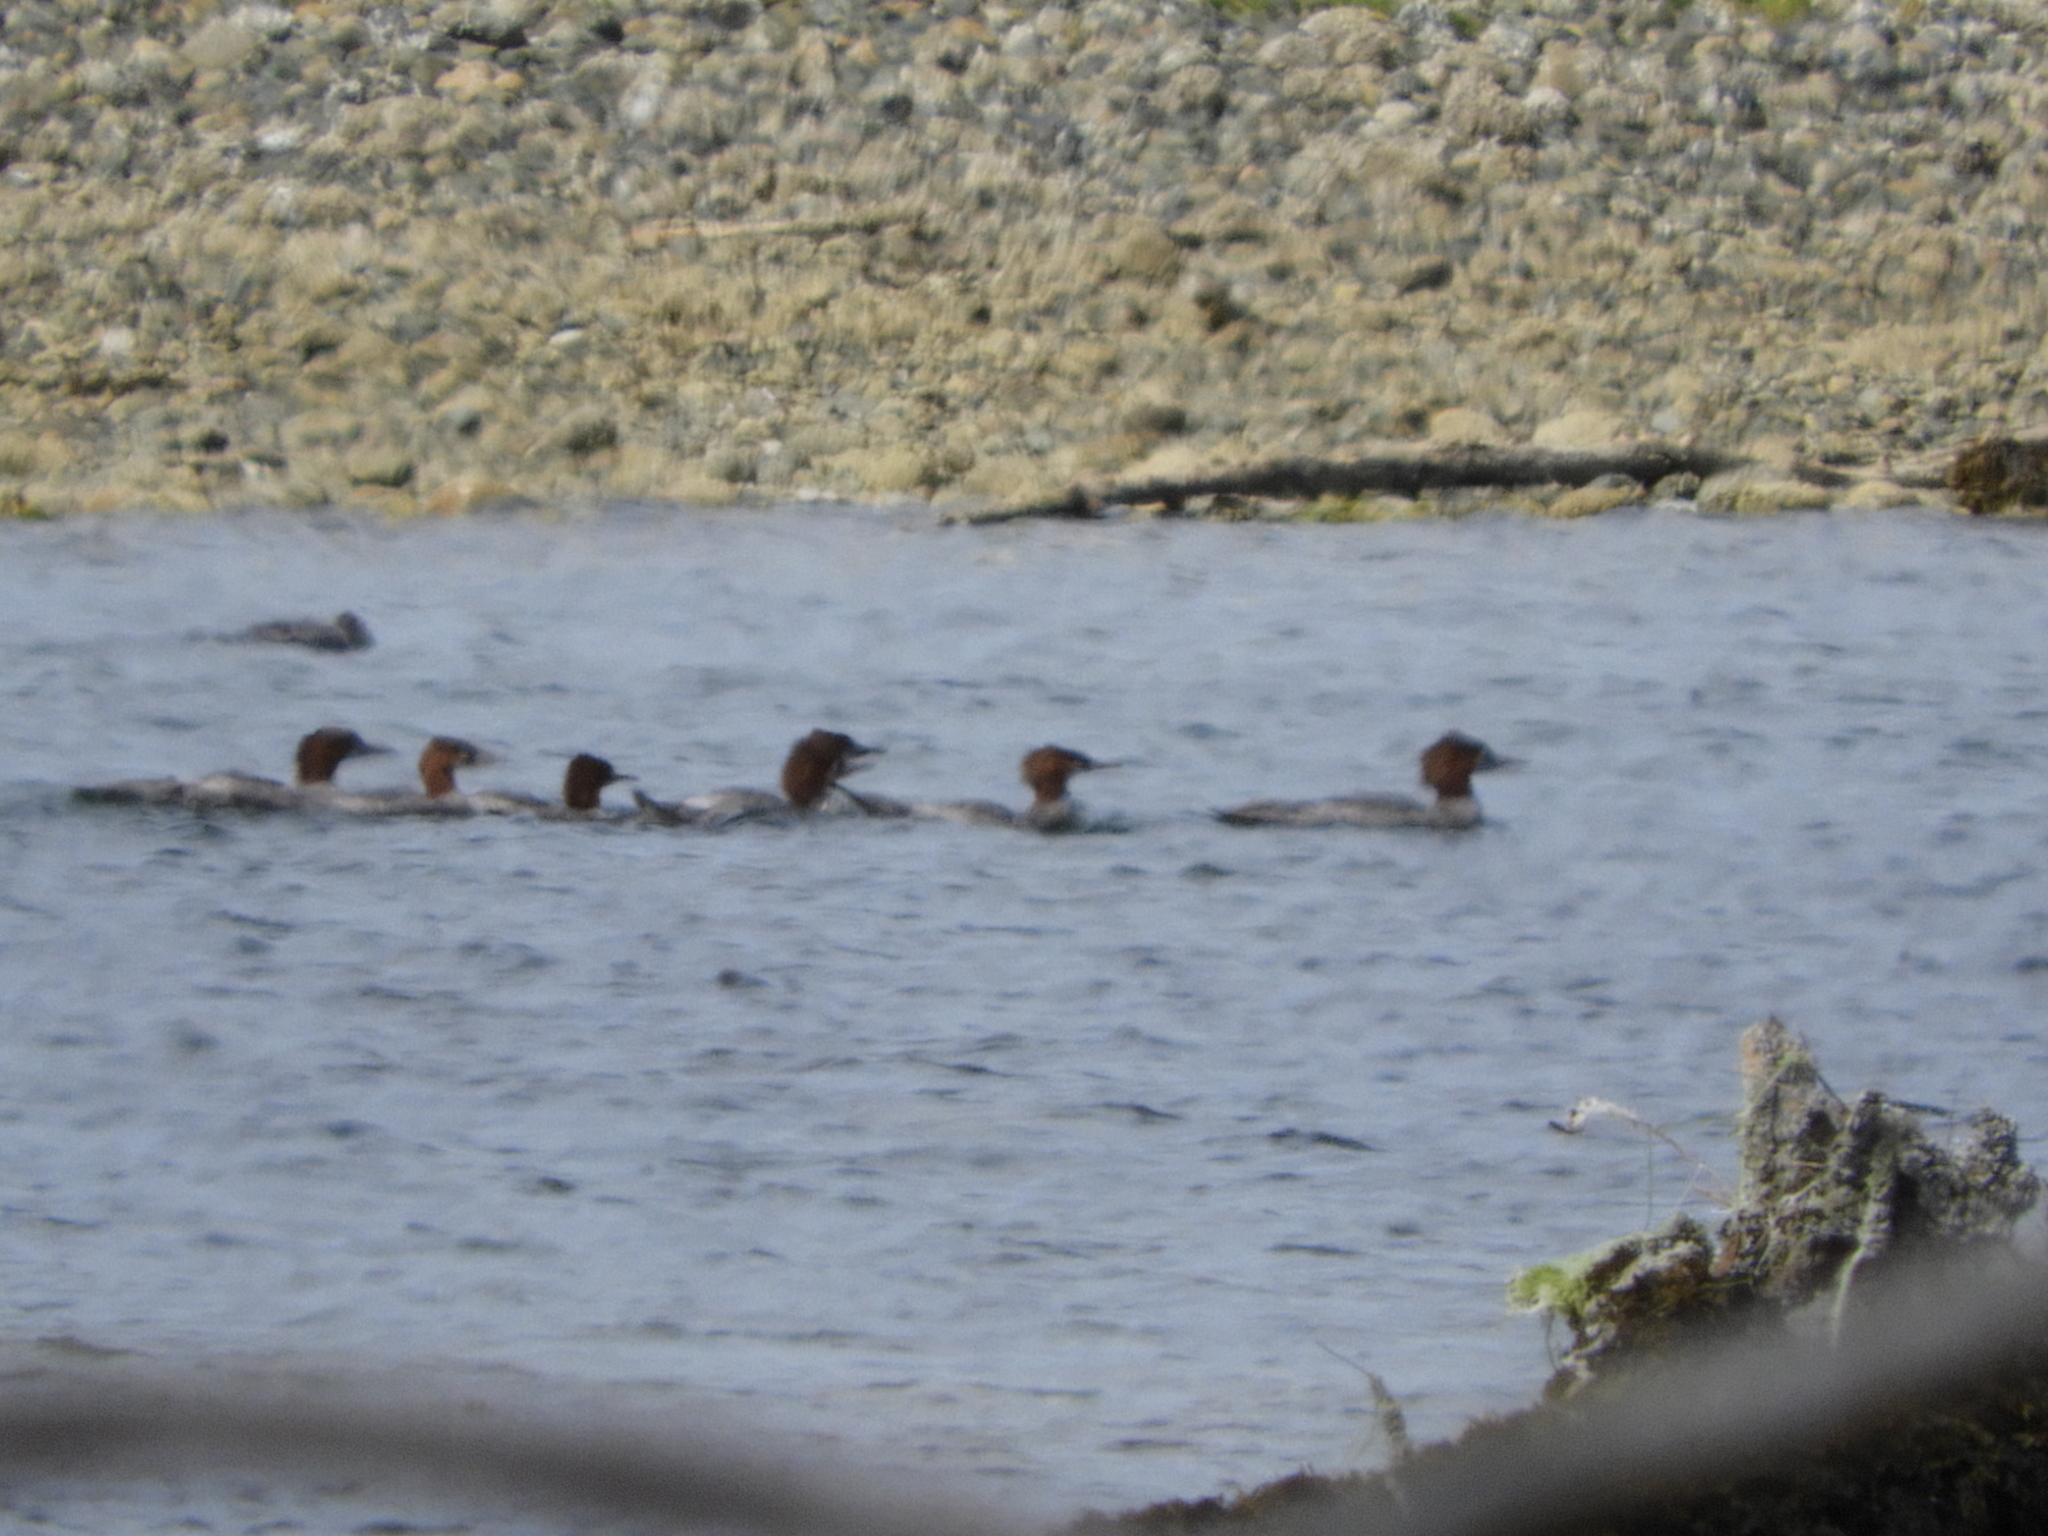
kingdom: Animalia
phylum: Chordata
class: Aves
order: Anseriformes
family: Anatidae
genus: Mergus
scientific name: Mergus merganser
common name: Common merganser
